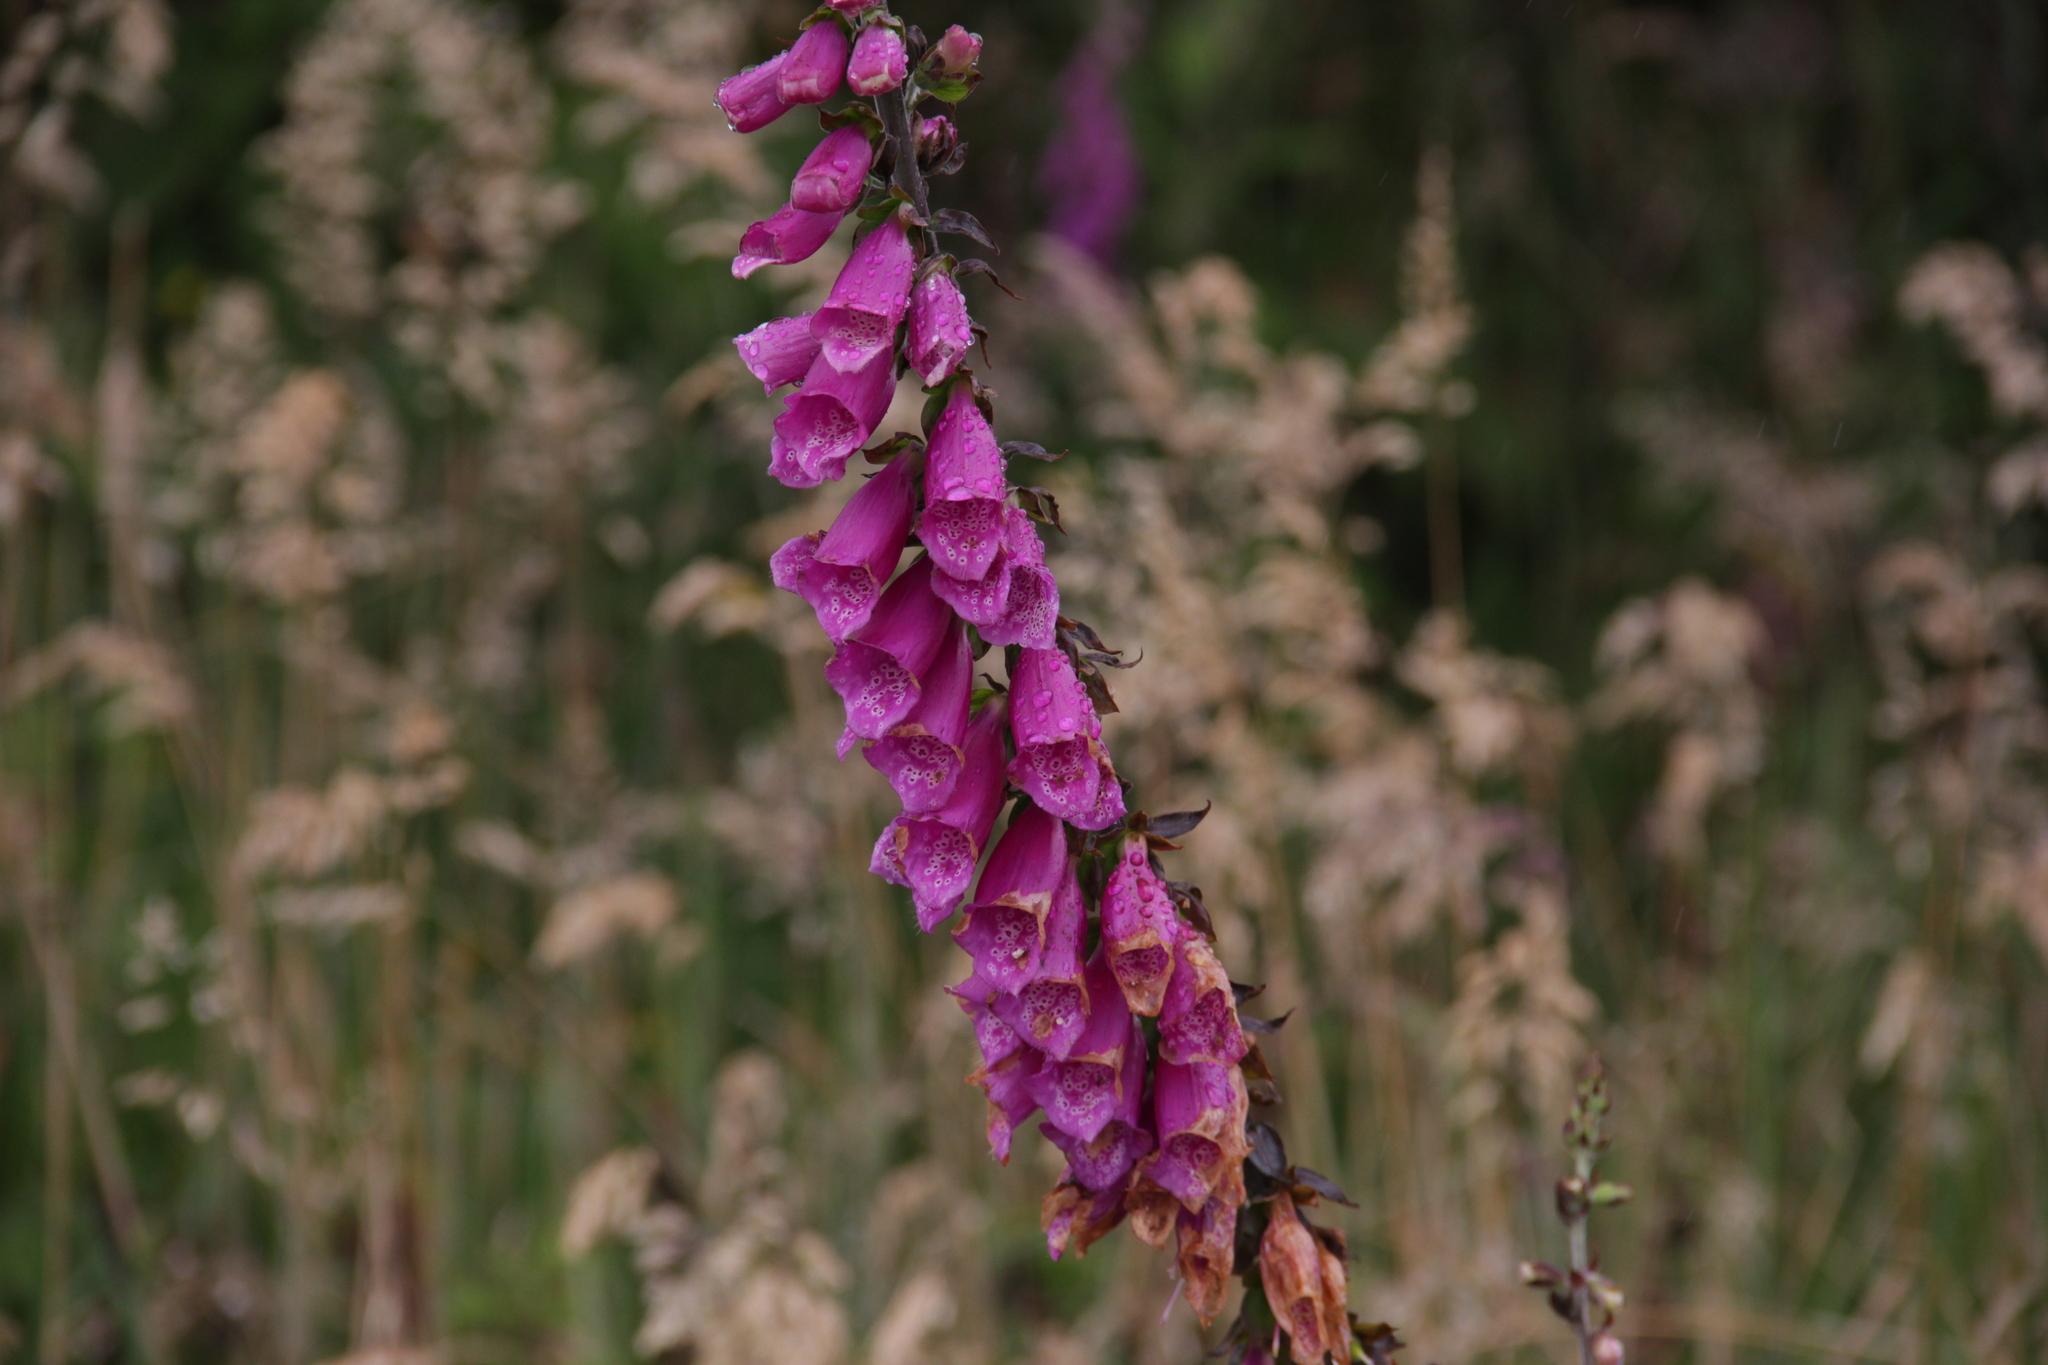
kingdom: Plantae
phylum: Tracheophyta
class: Magnoliopsida
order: Lamiales
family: Plantaginaceae
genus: Digitalis
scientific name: Digitalis purpurea
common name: Foxglove
